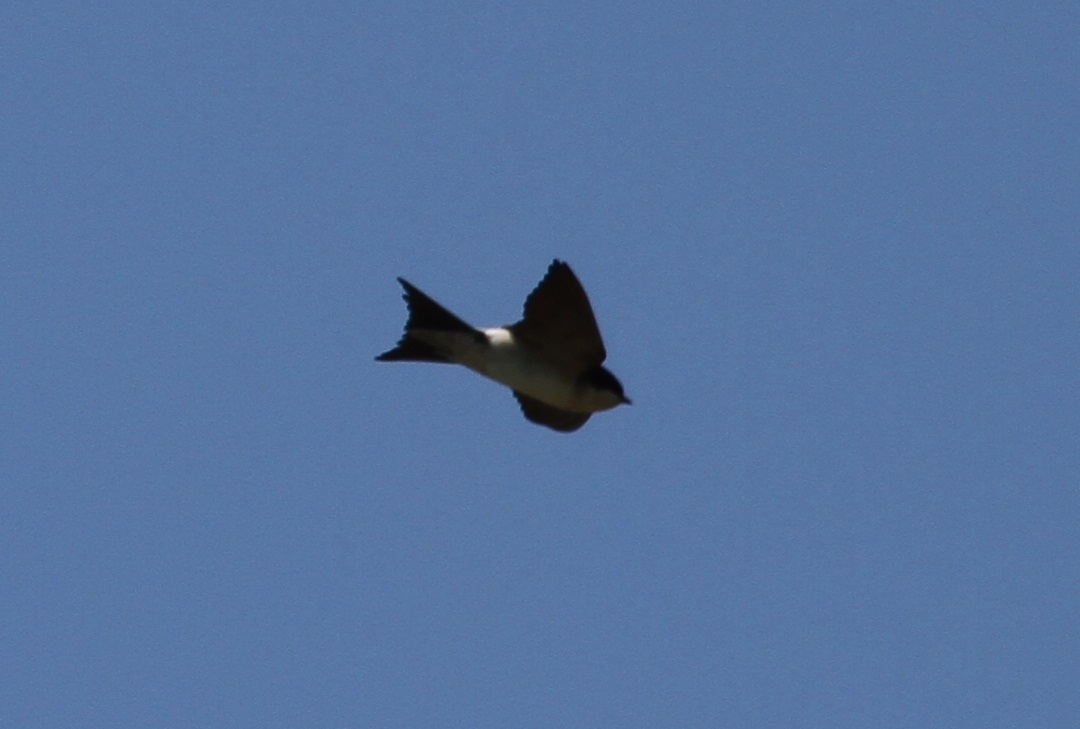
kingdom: Animalia
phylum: Chordata
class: Aves
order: Passeriformes
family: Hirundinidae
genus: Delichon
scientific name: Delichon urbicum
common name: Common house martin
